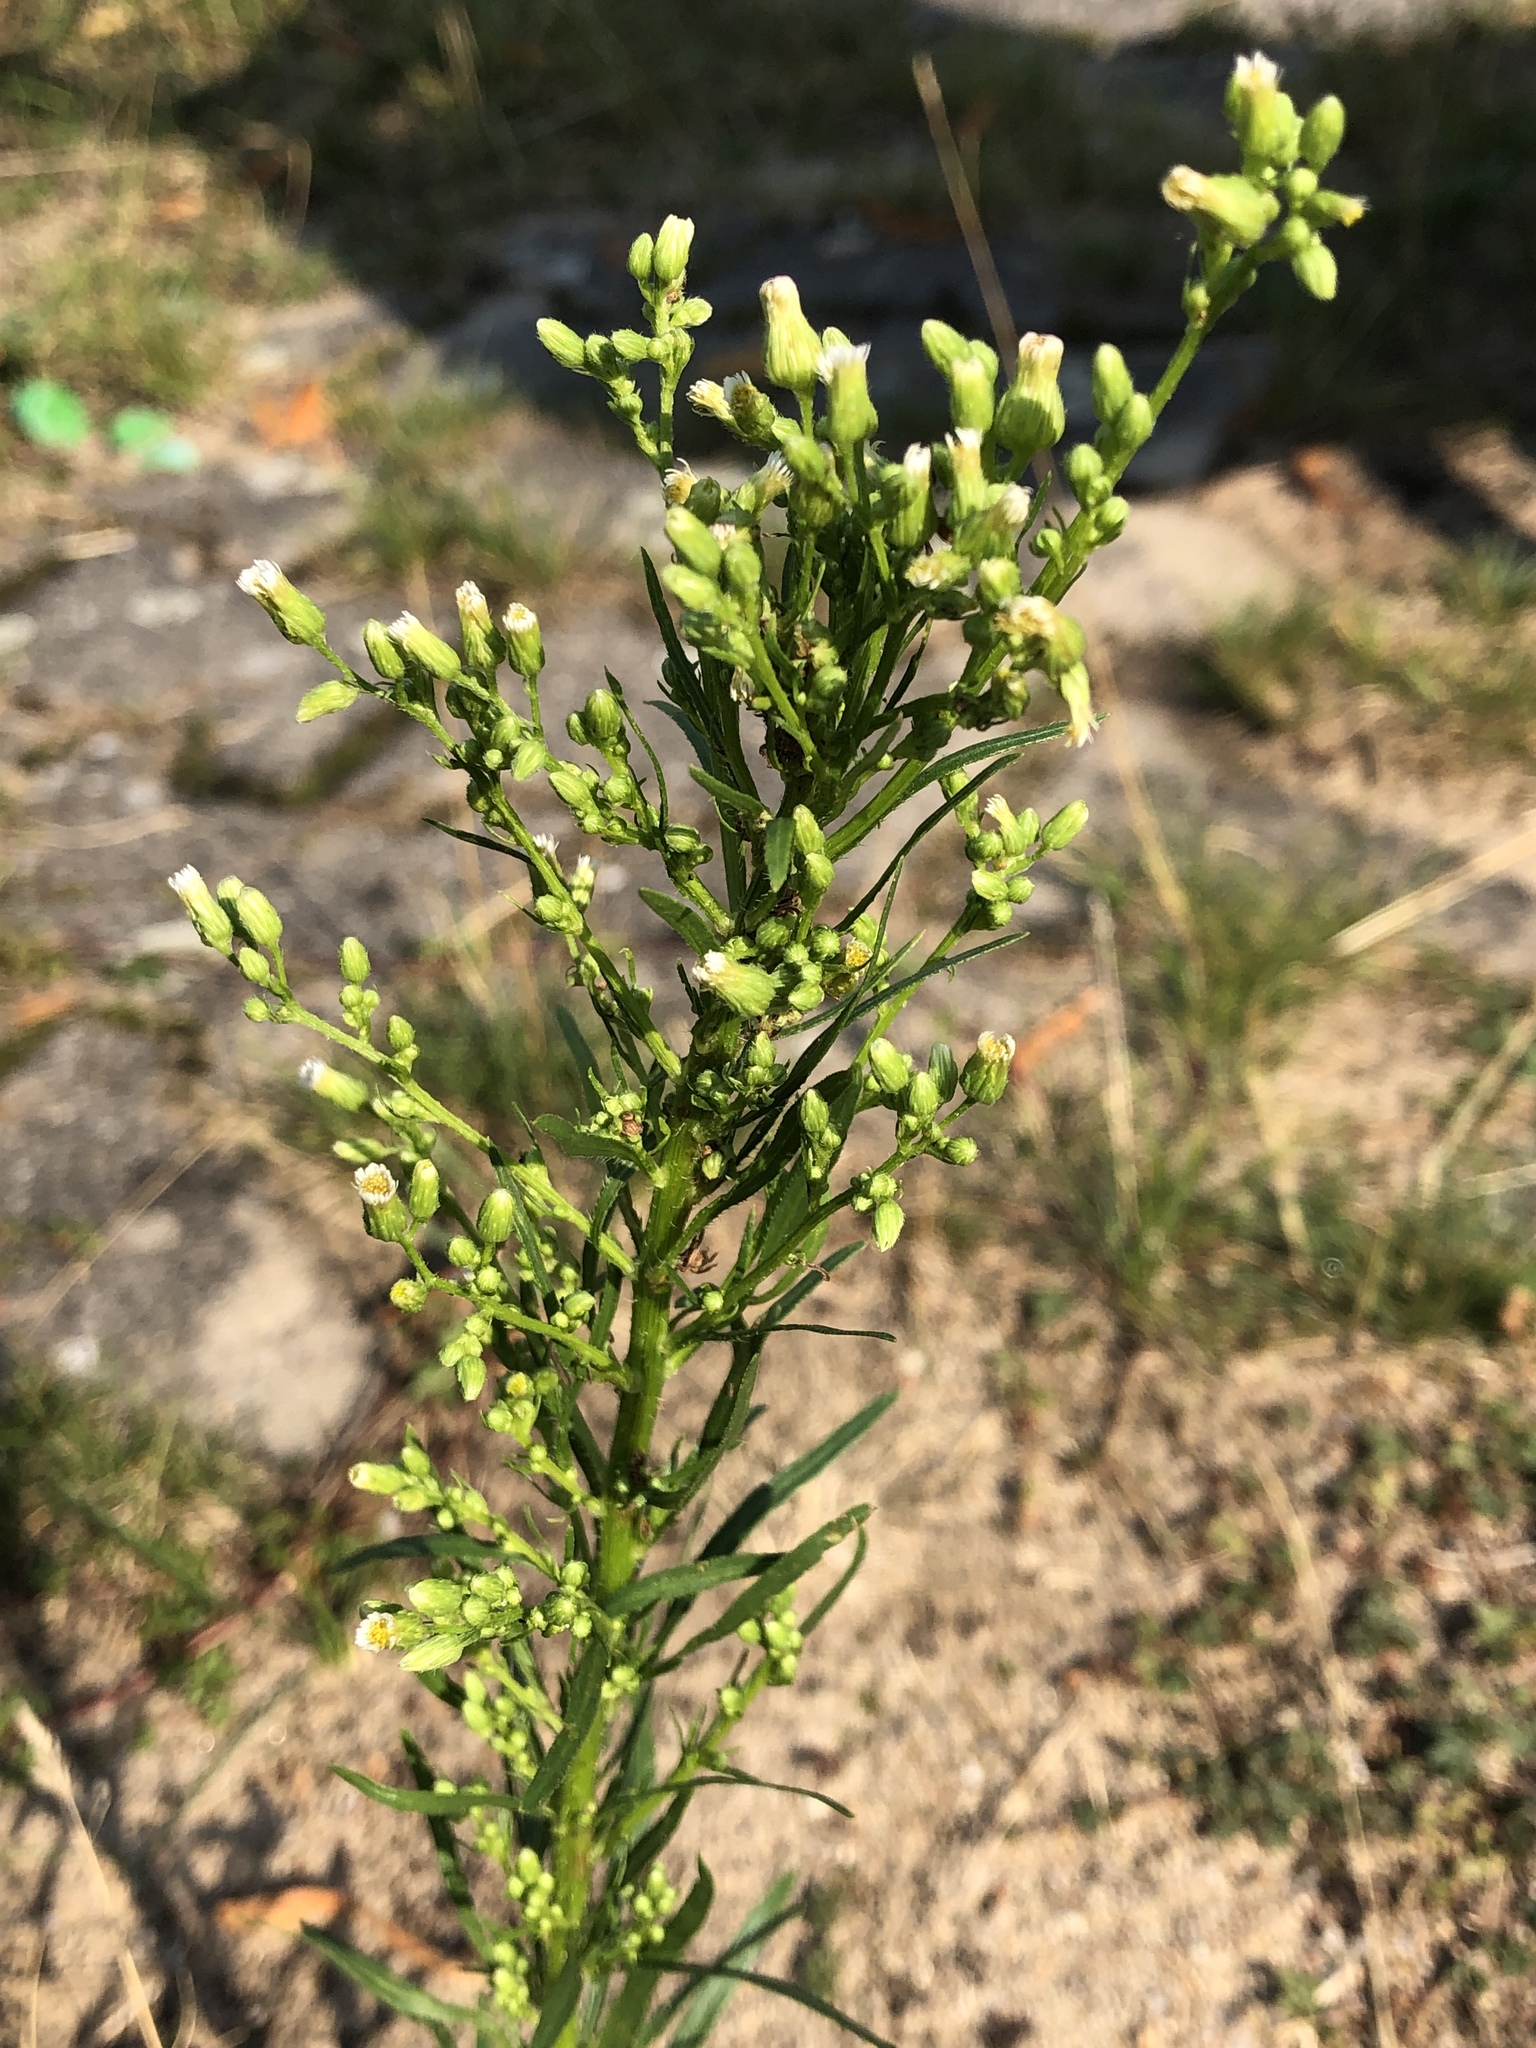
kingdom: Plantae
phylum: Tracheophyta
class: Magnoliopsida
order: Asterales
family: Asteraceae
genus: Erigeron
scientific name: Erigeron canadensis
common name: Canadian fleabane
